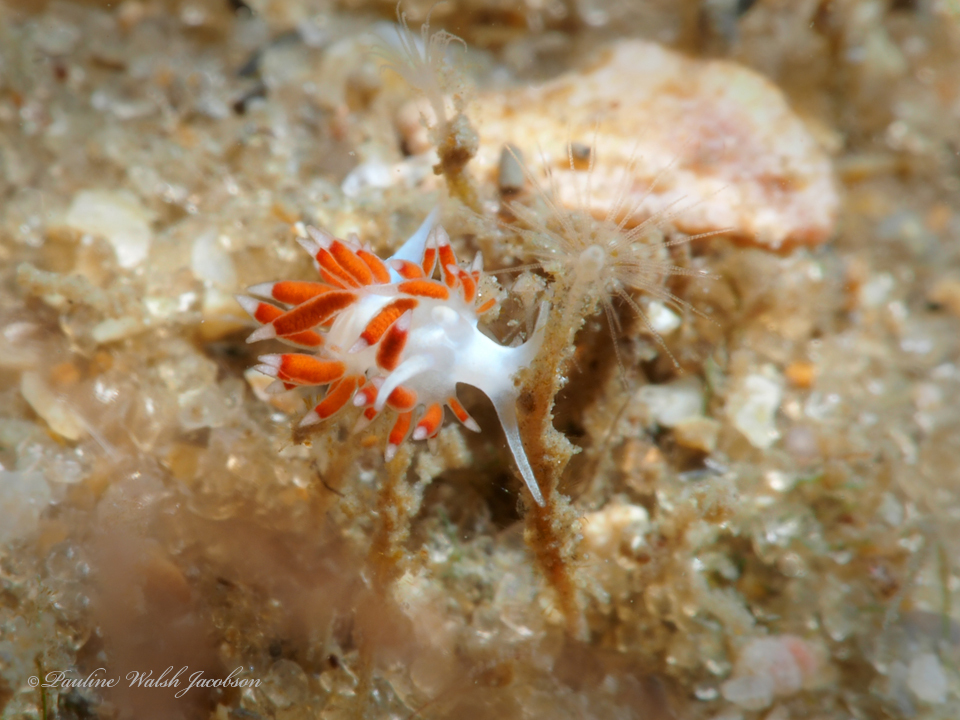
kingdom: Animalia
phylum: Mollusca
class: Gastropoda
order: Nudibranchia
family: Flabellinidae
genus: Flabellina
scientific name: Flabellina dushia
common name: Dushia flabellina
